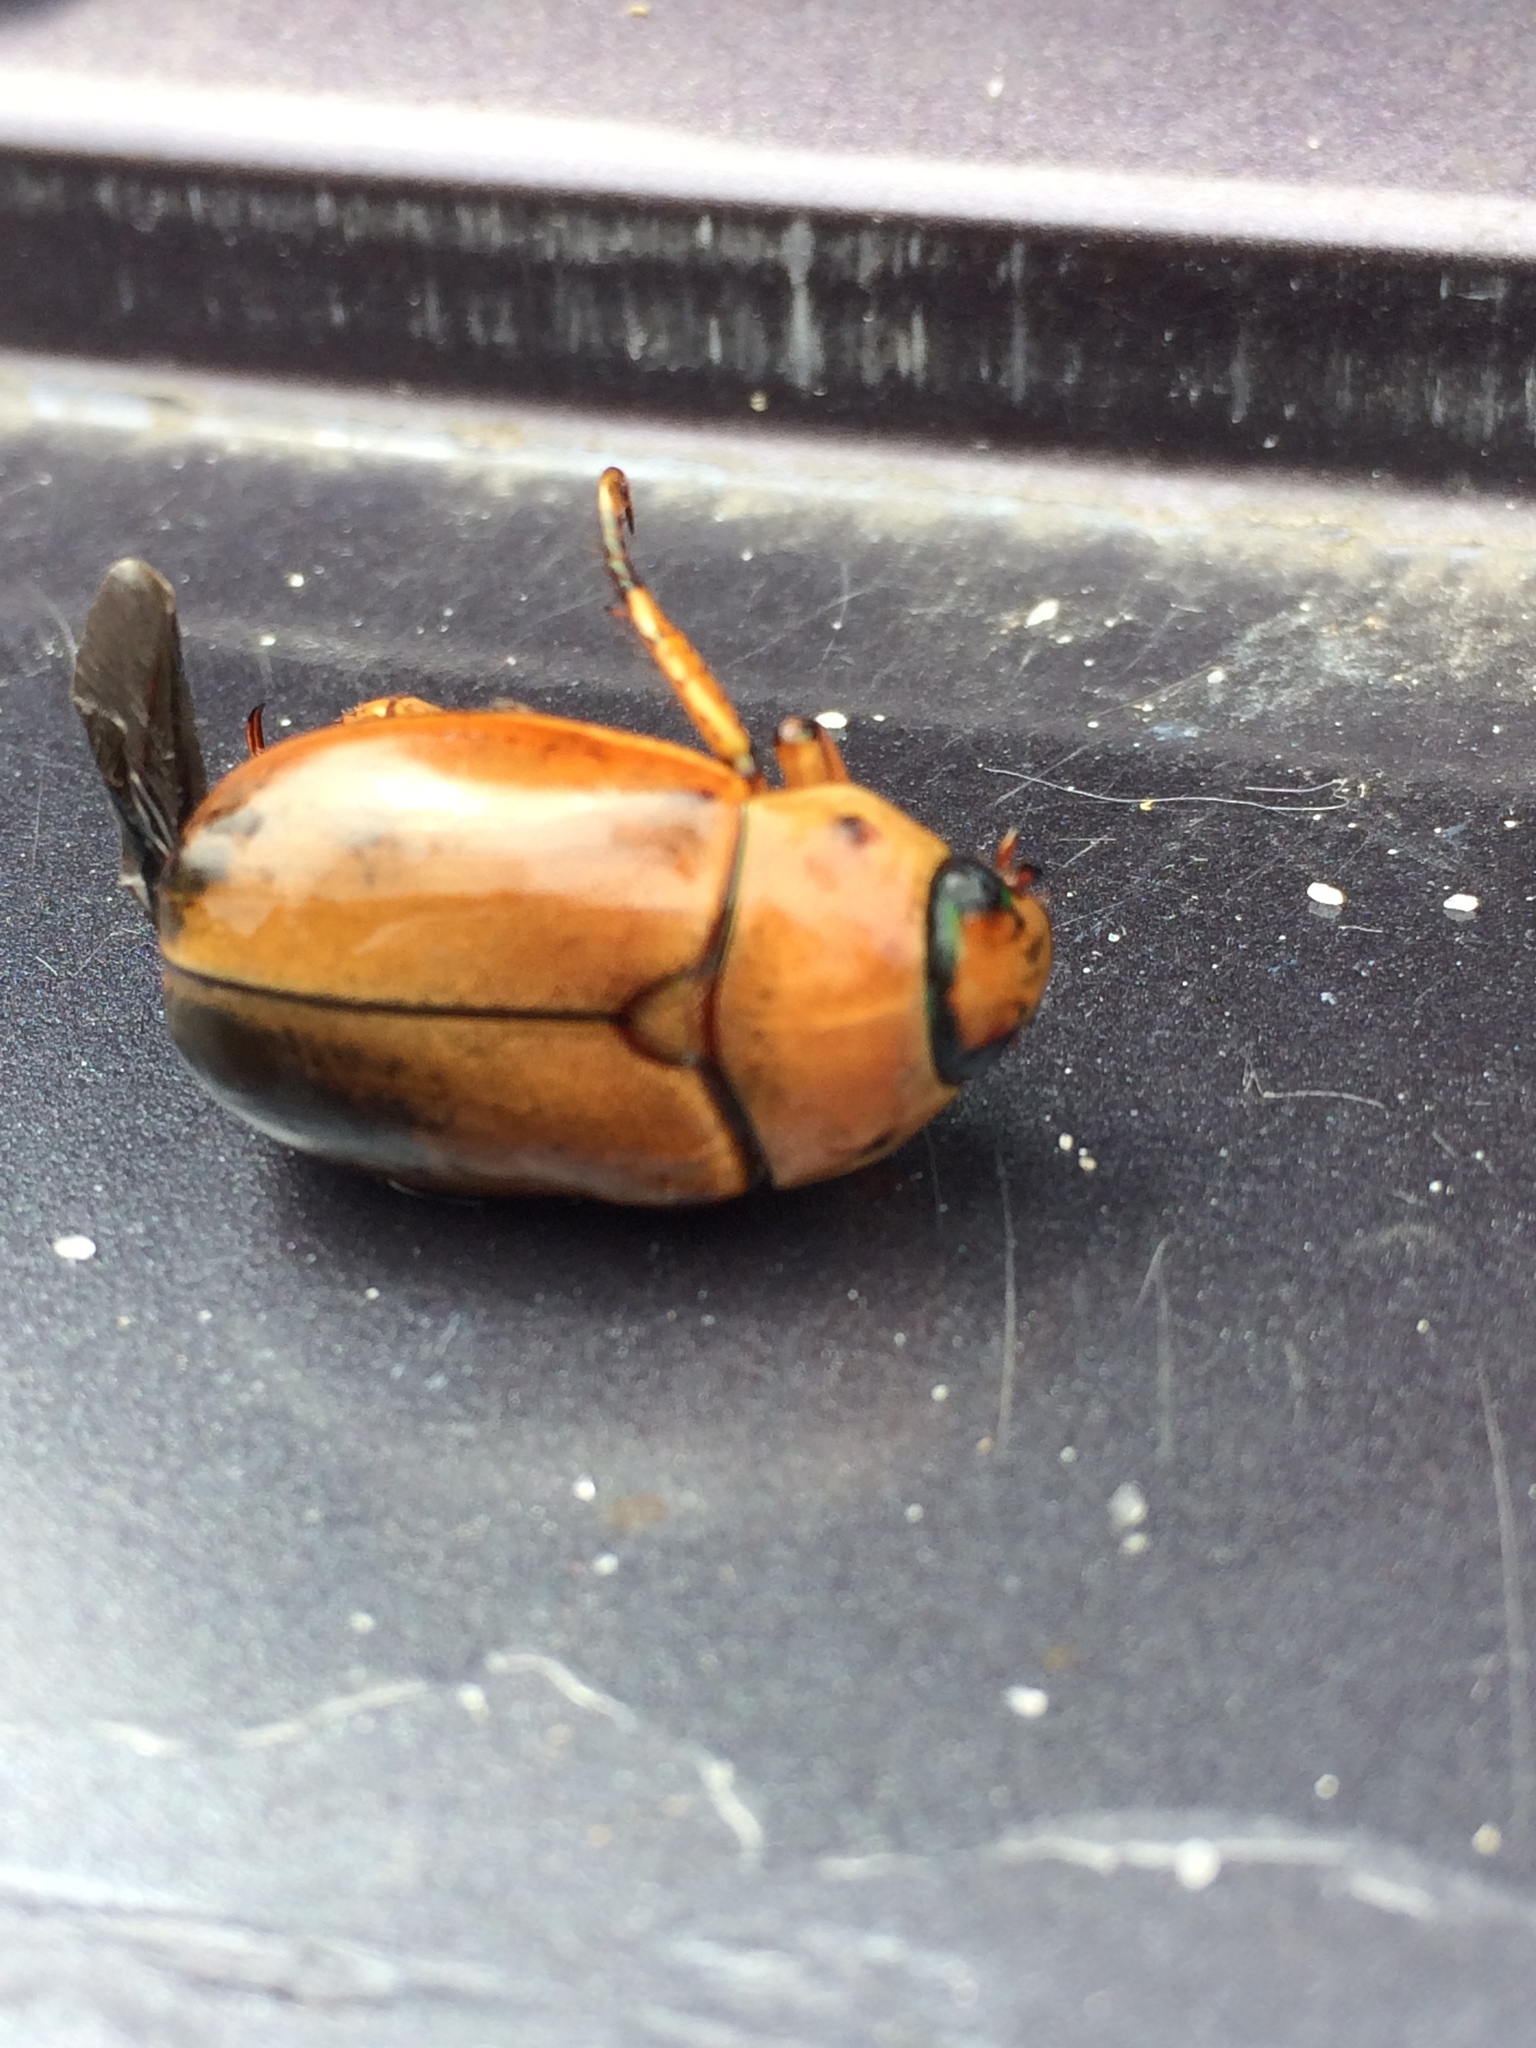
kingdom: Animalia
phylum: Arthropoda
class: Insecta
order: Coleoptera
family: Scarabaeidae
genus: Pelidnota
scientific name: Pelidnota punctata
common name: Grapevine beetle
